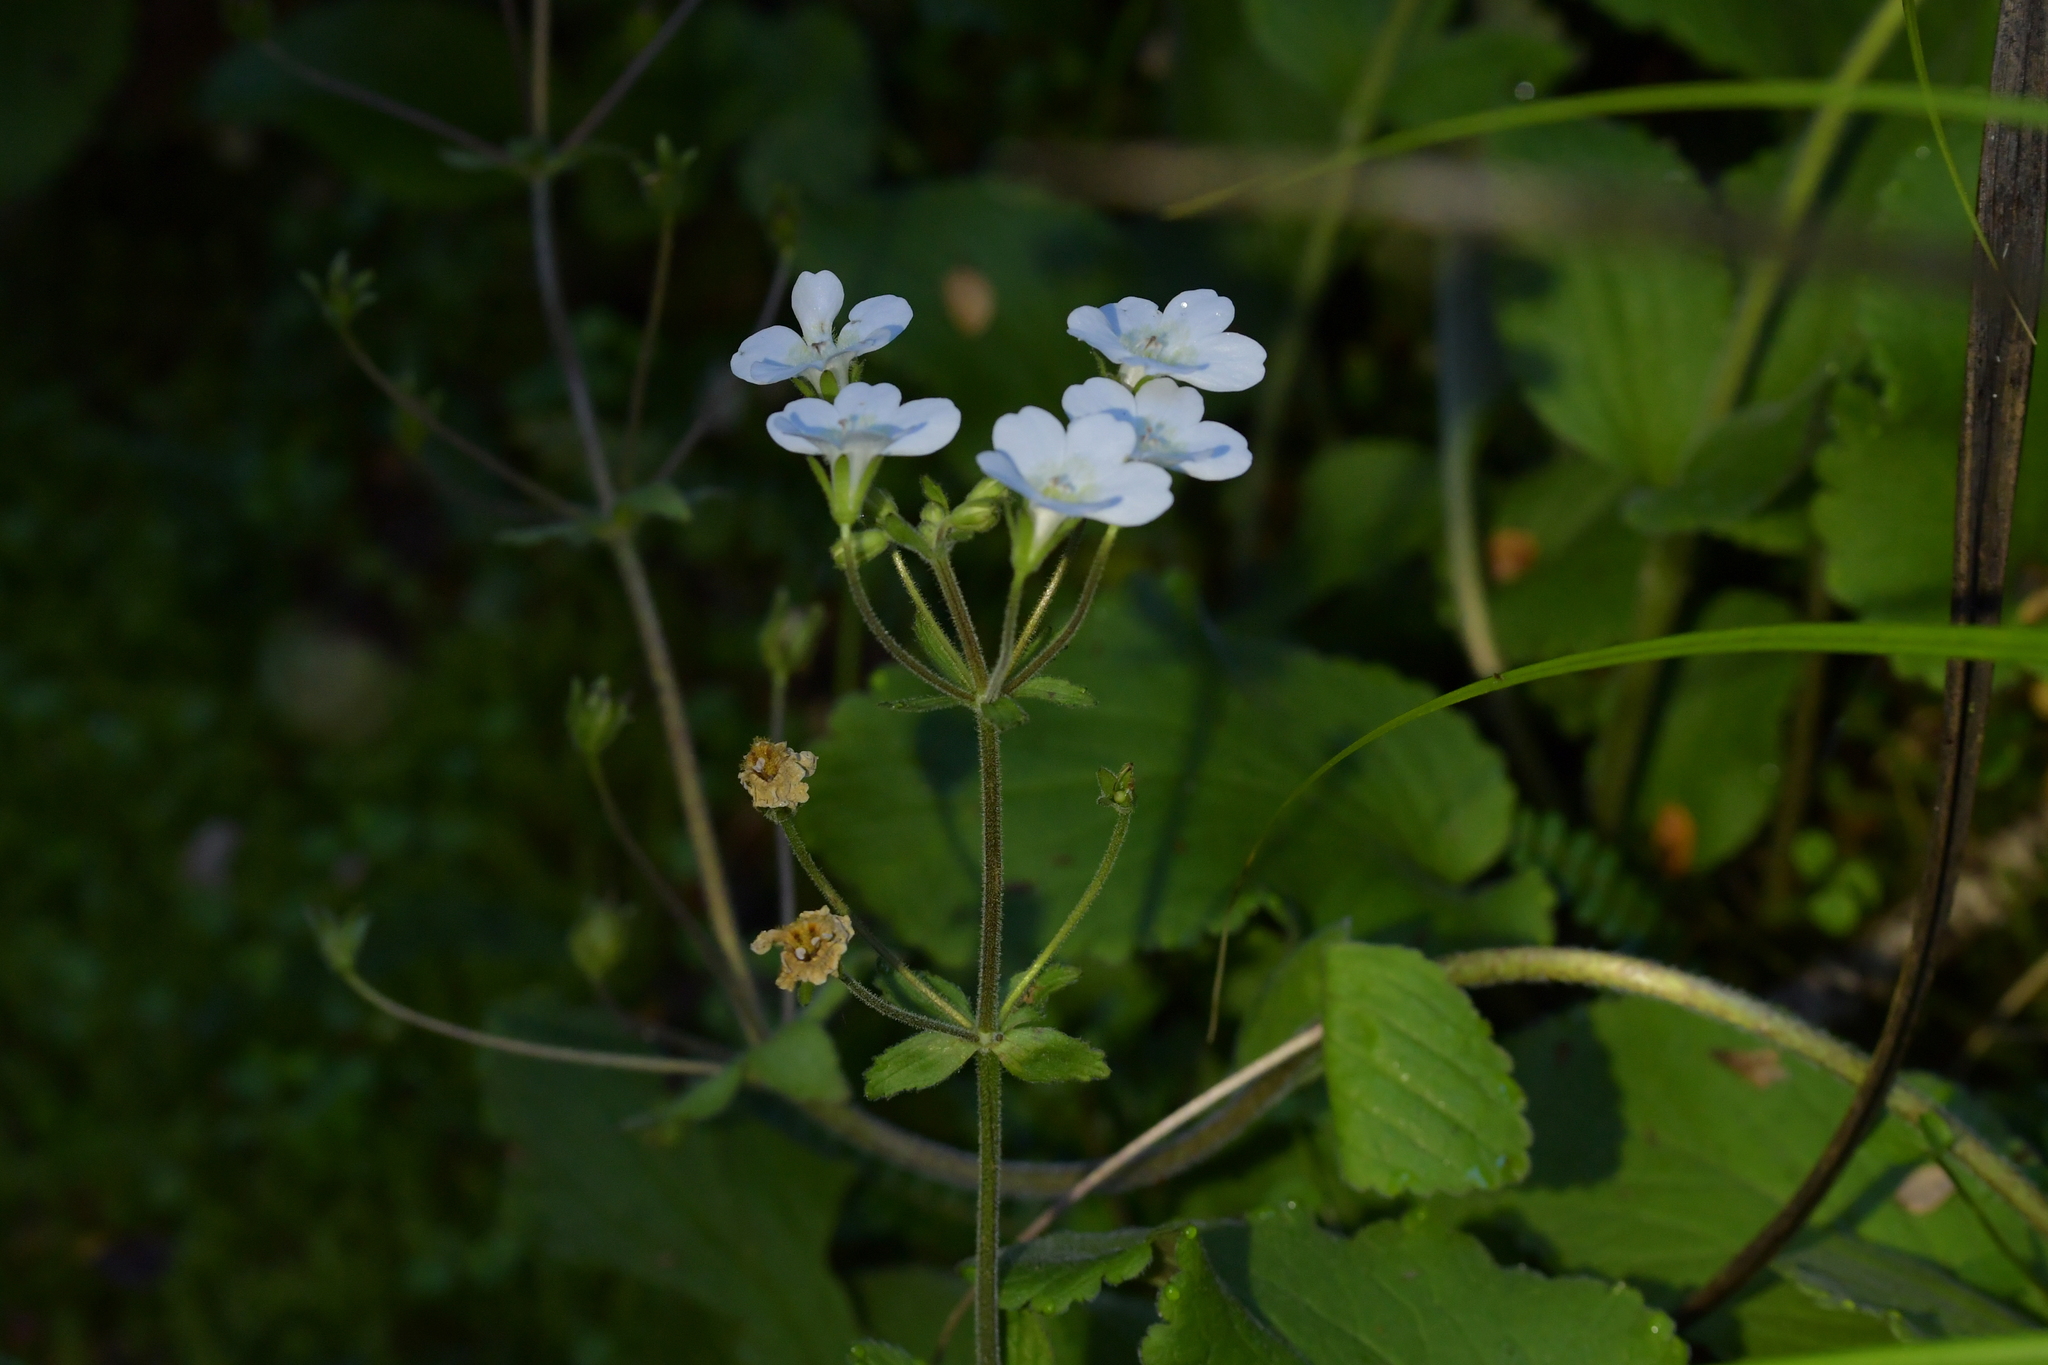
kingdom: Plantae
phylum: Tracheophyta
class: Magnoliopsida
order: Lamiales
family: Plantaginaceae
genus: Ourisia
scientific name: Ourisia macrophylla
